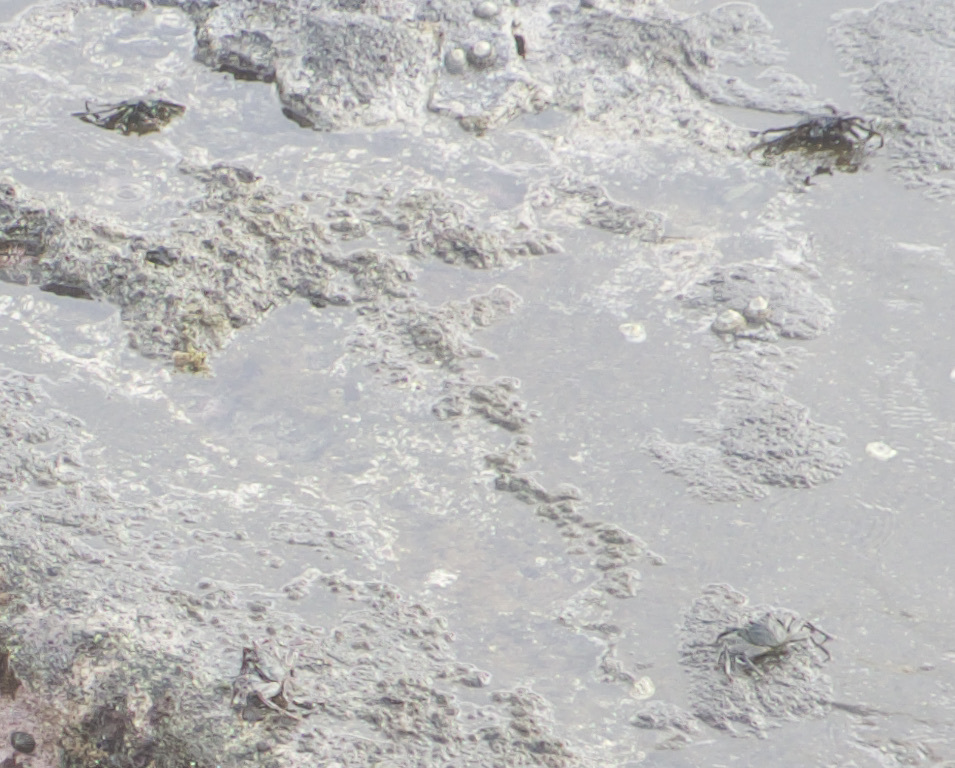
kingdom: Animalia
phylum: Arthropoda
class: Malacostraca
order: Decapoda
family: Grapsidae
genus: Grapsus
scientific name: Grapsus tenuicrustatus
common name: Natal lightfoot crab
